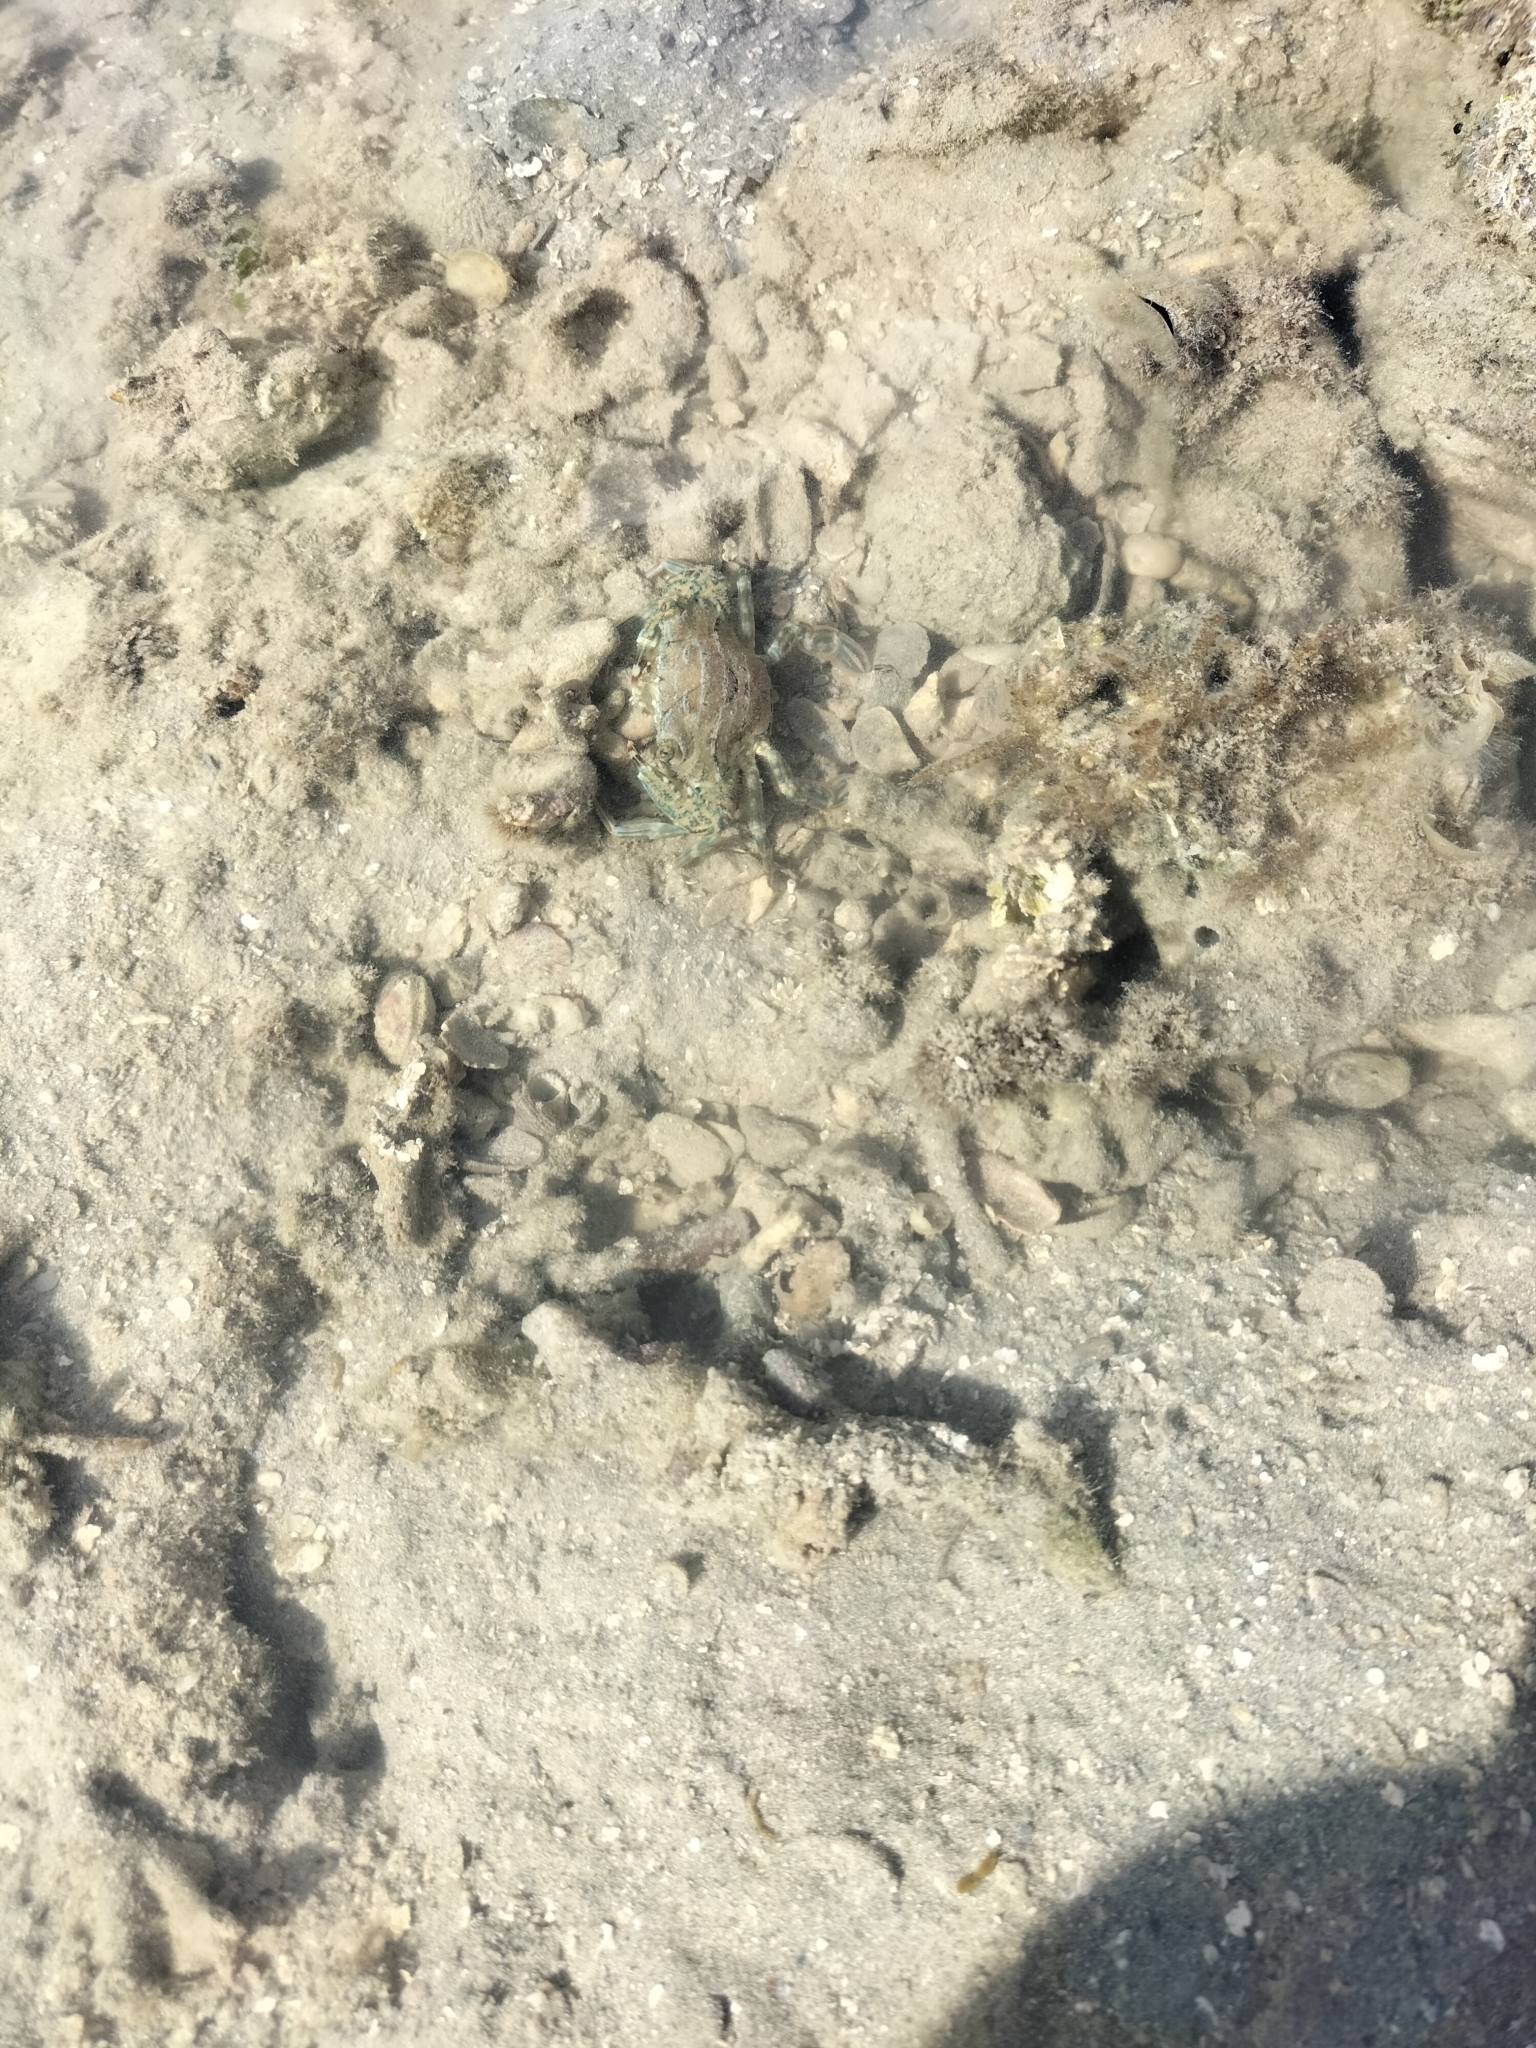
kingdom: Animalia
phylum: Arthropoda
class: Malacostraca
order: Decapoda
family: Portunidae
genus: Thalamita
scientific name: Thalamita danae
